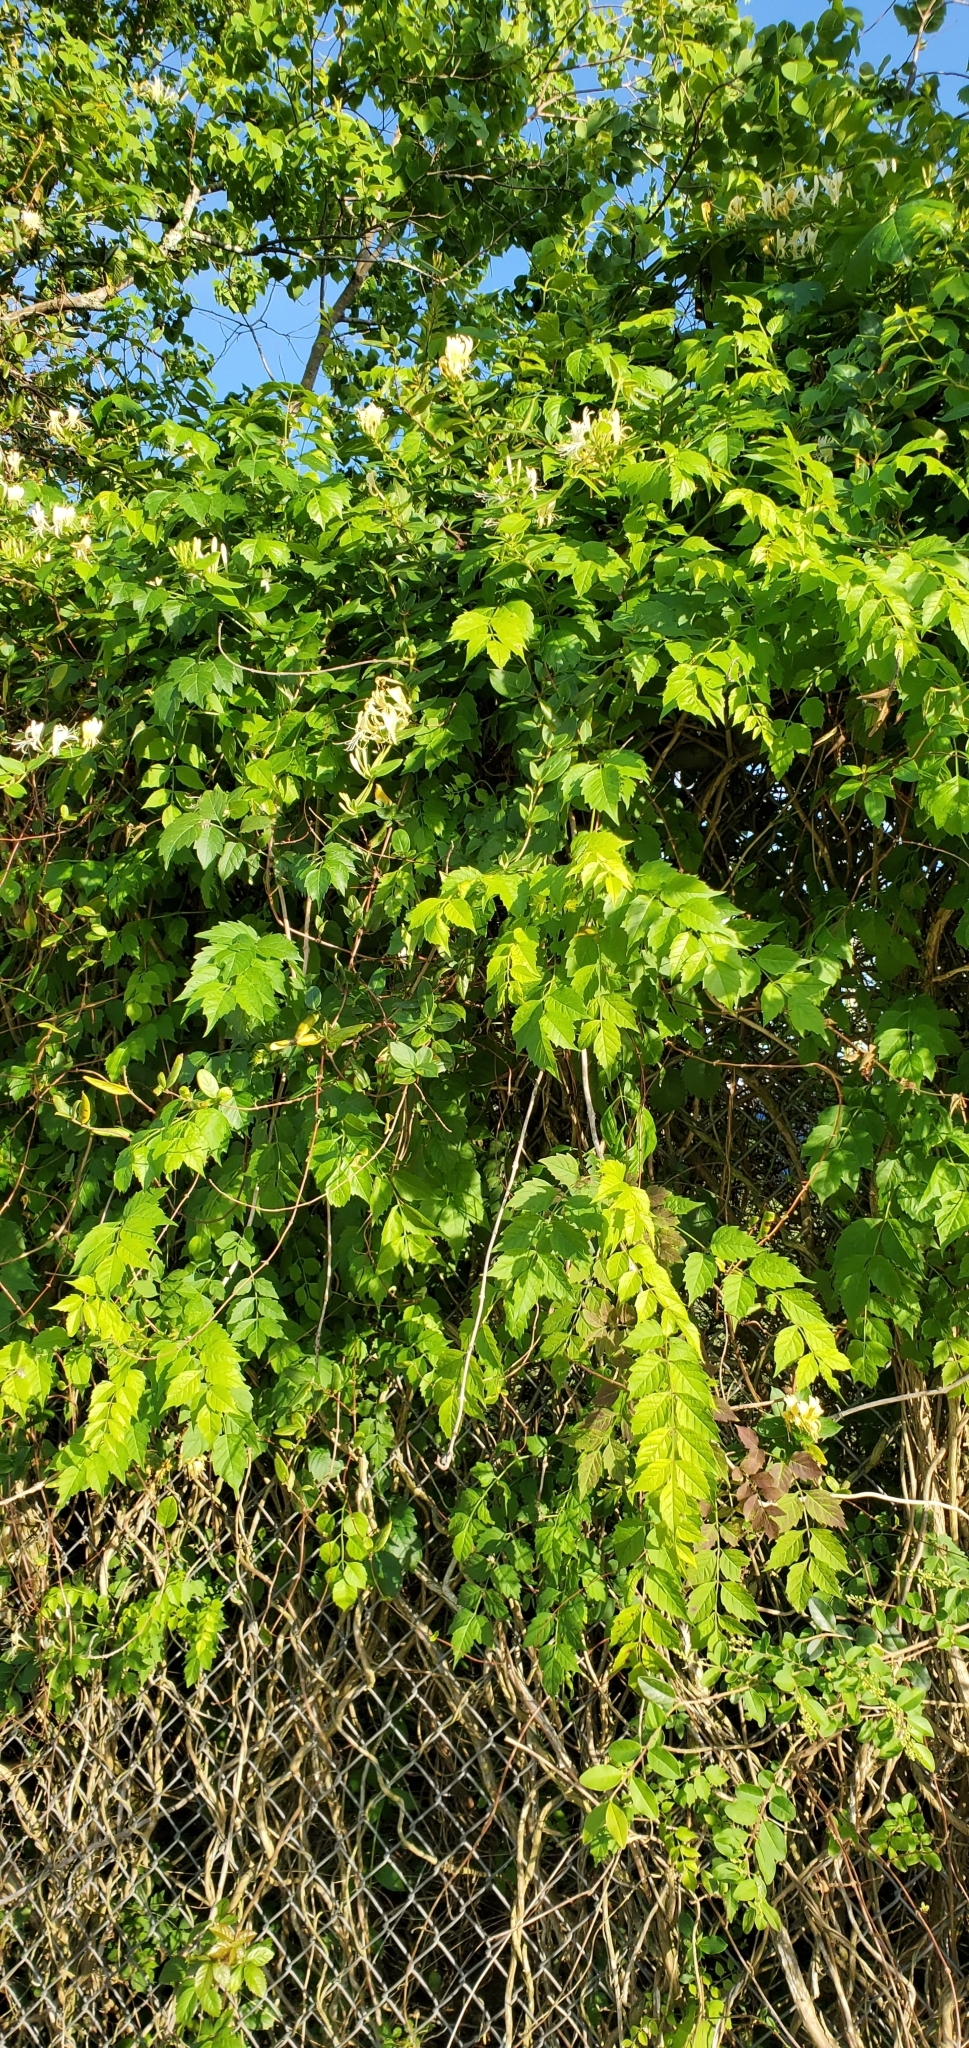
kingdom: Plantae
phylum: Tracheophyta
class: Magnoliopsida
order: Lamiales
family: Bignoniaceae
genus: Campsis
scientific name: Campsis radicans
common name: Trumpet-creeper
